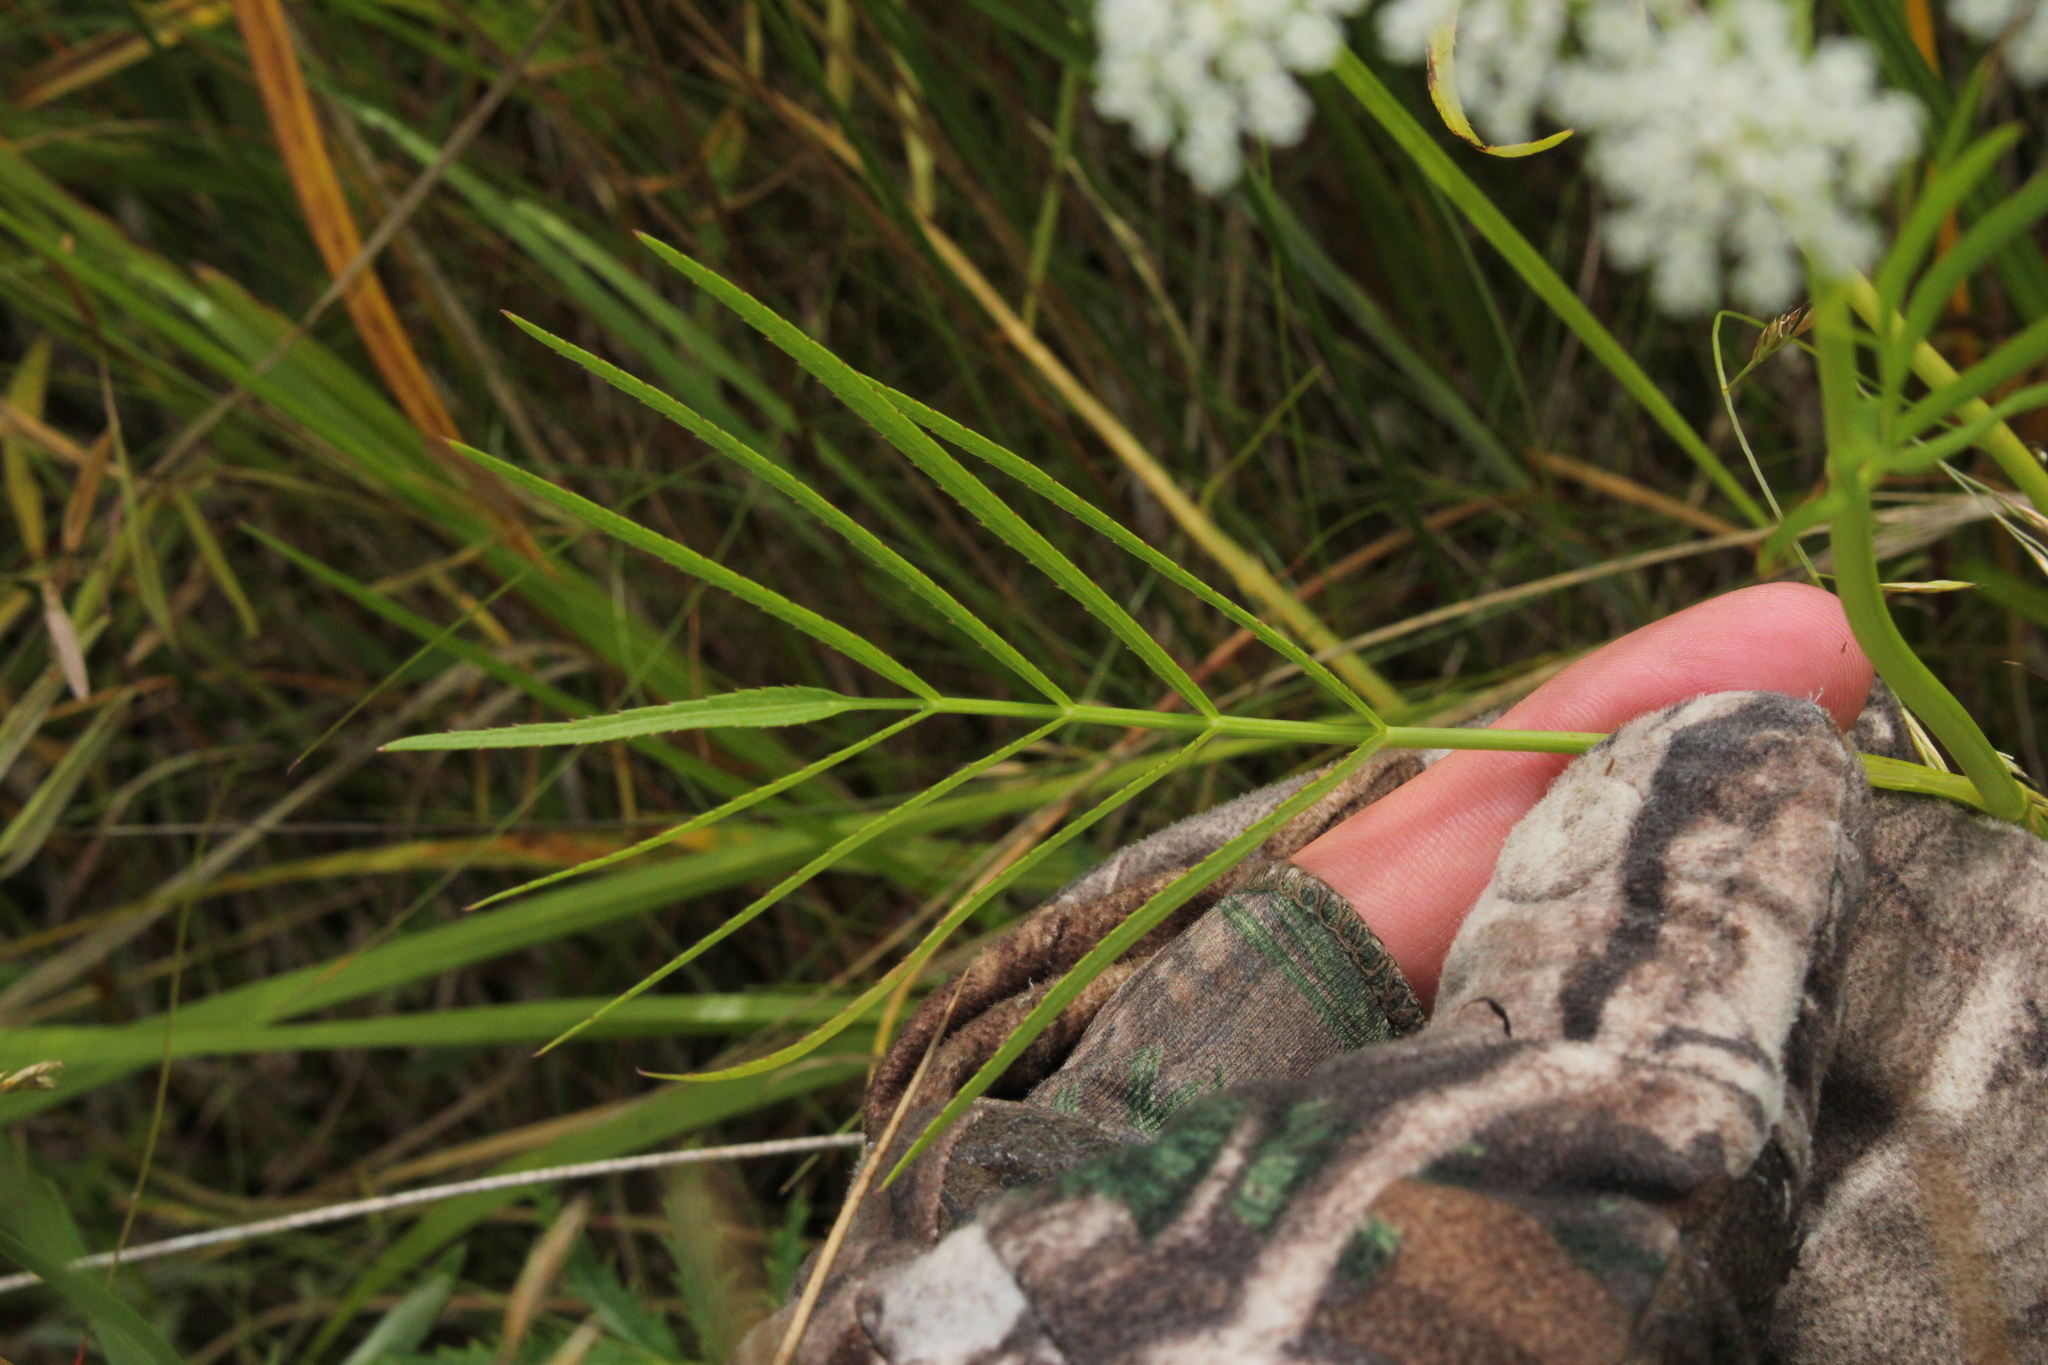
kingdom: Plantae
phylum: Tracheophyta
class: Magnoliopsida
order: Apiales
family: Apiaceae
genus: Sium
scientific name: Sium suave
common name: Hemlock water-parsnip
